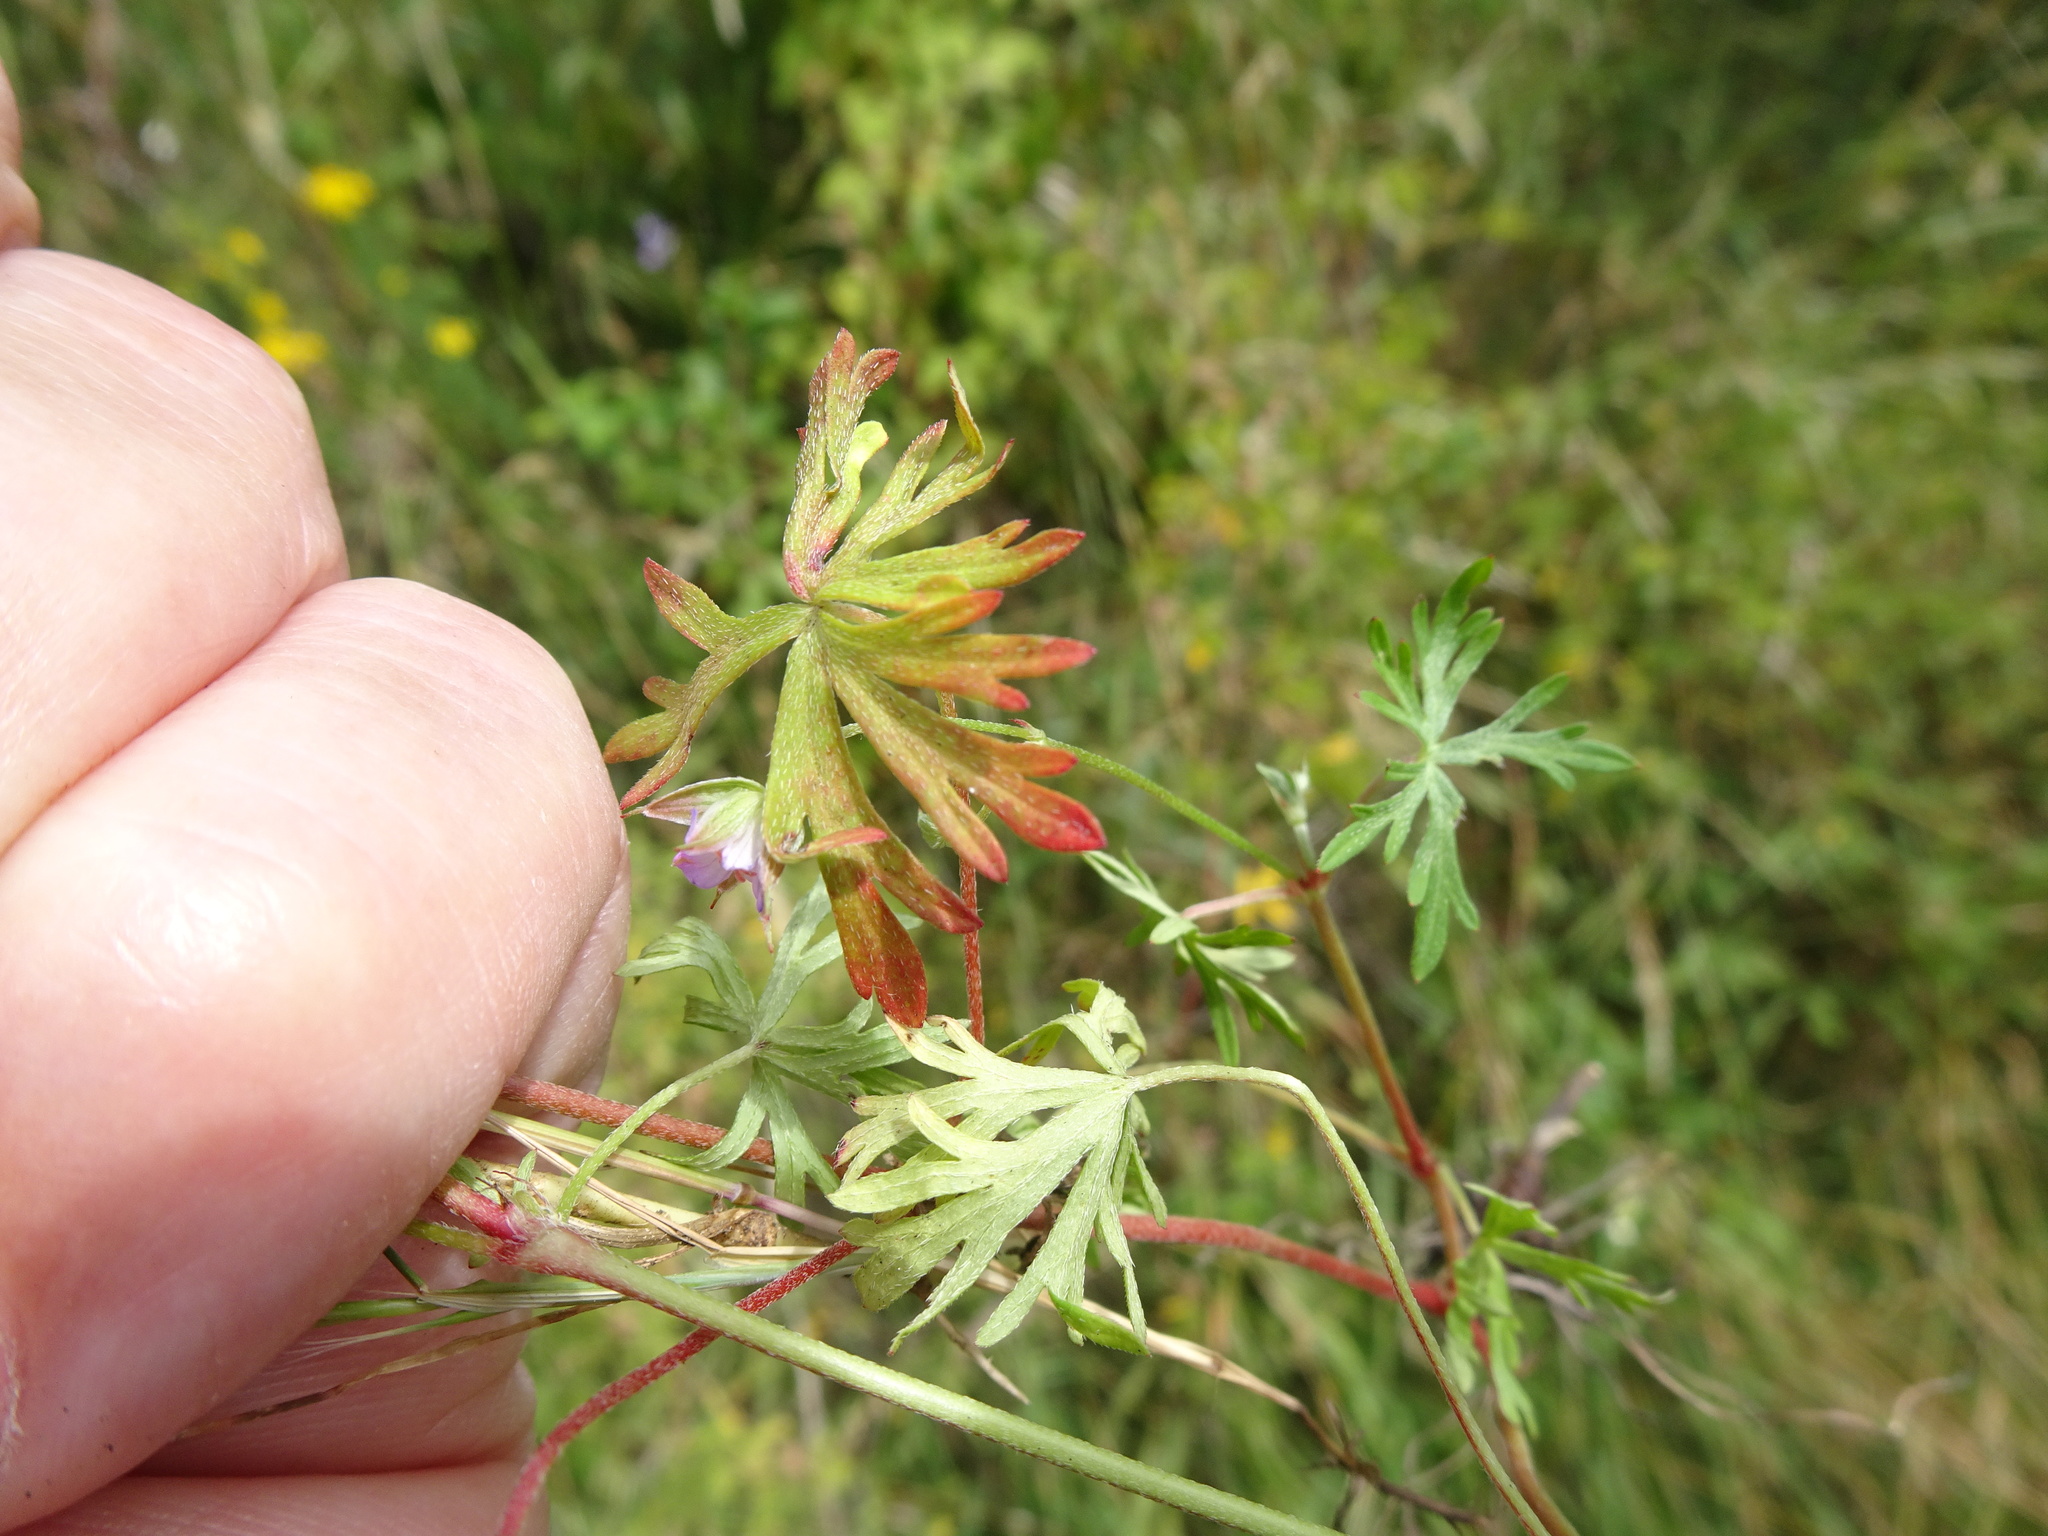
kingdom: Plantae
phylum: Tracheophyta
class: Magnoliopsida
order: Geraniales
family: Geraniaceae
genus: Geranium
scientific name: Geranium columbinum
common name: Long-stalked crane's-bill
